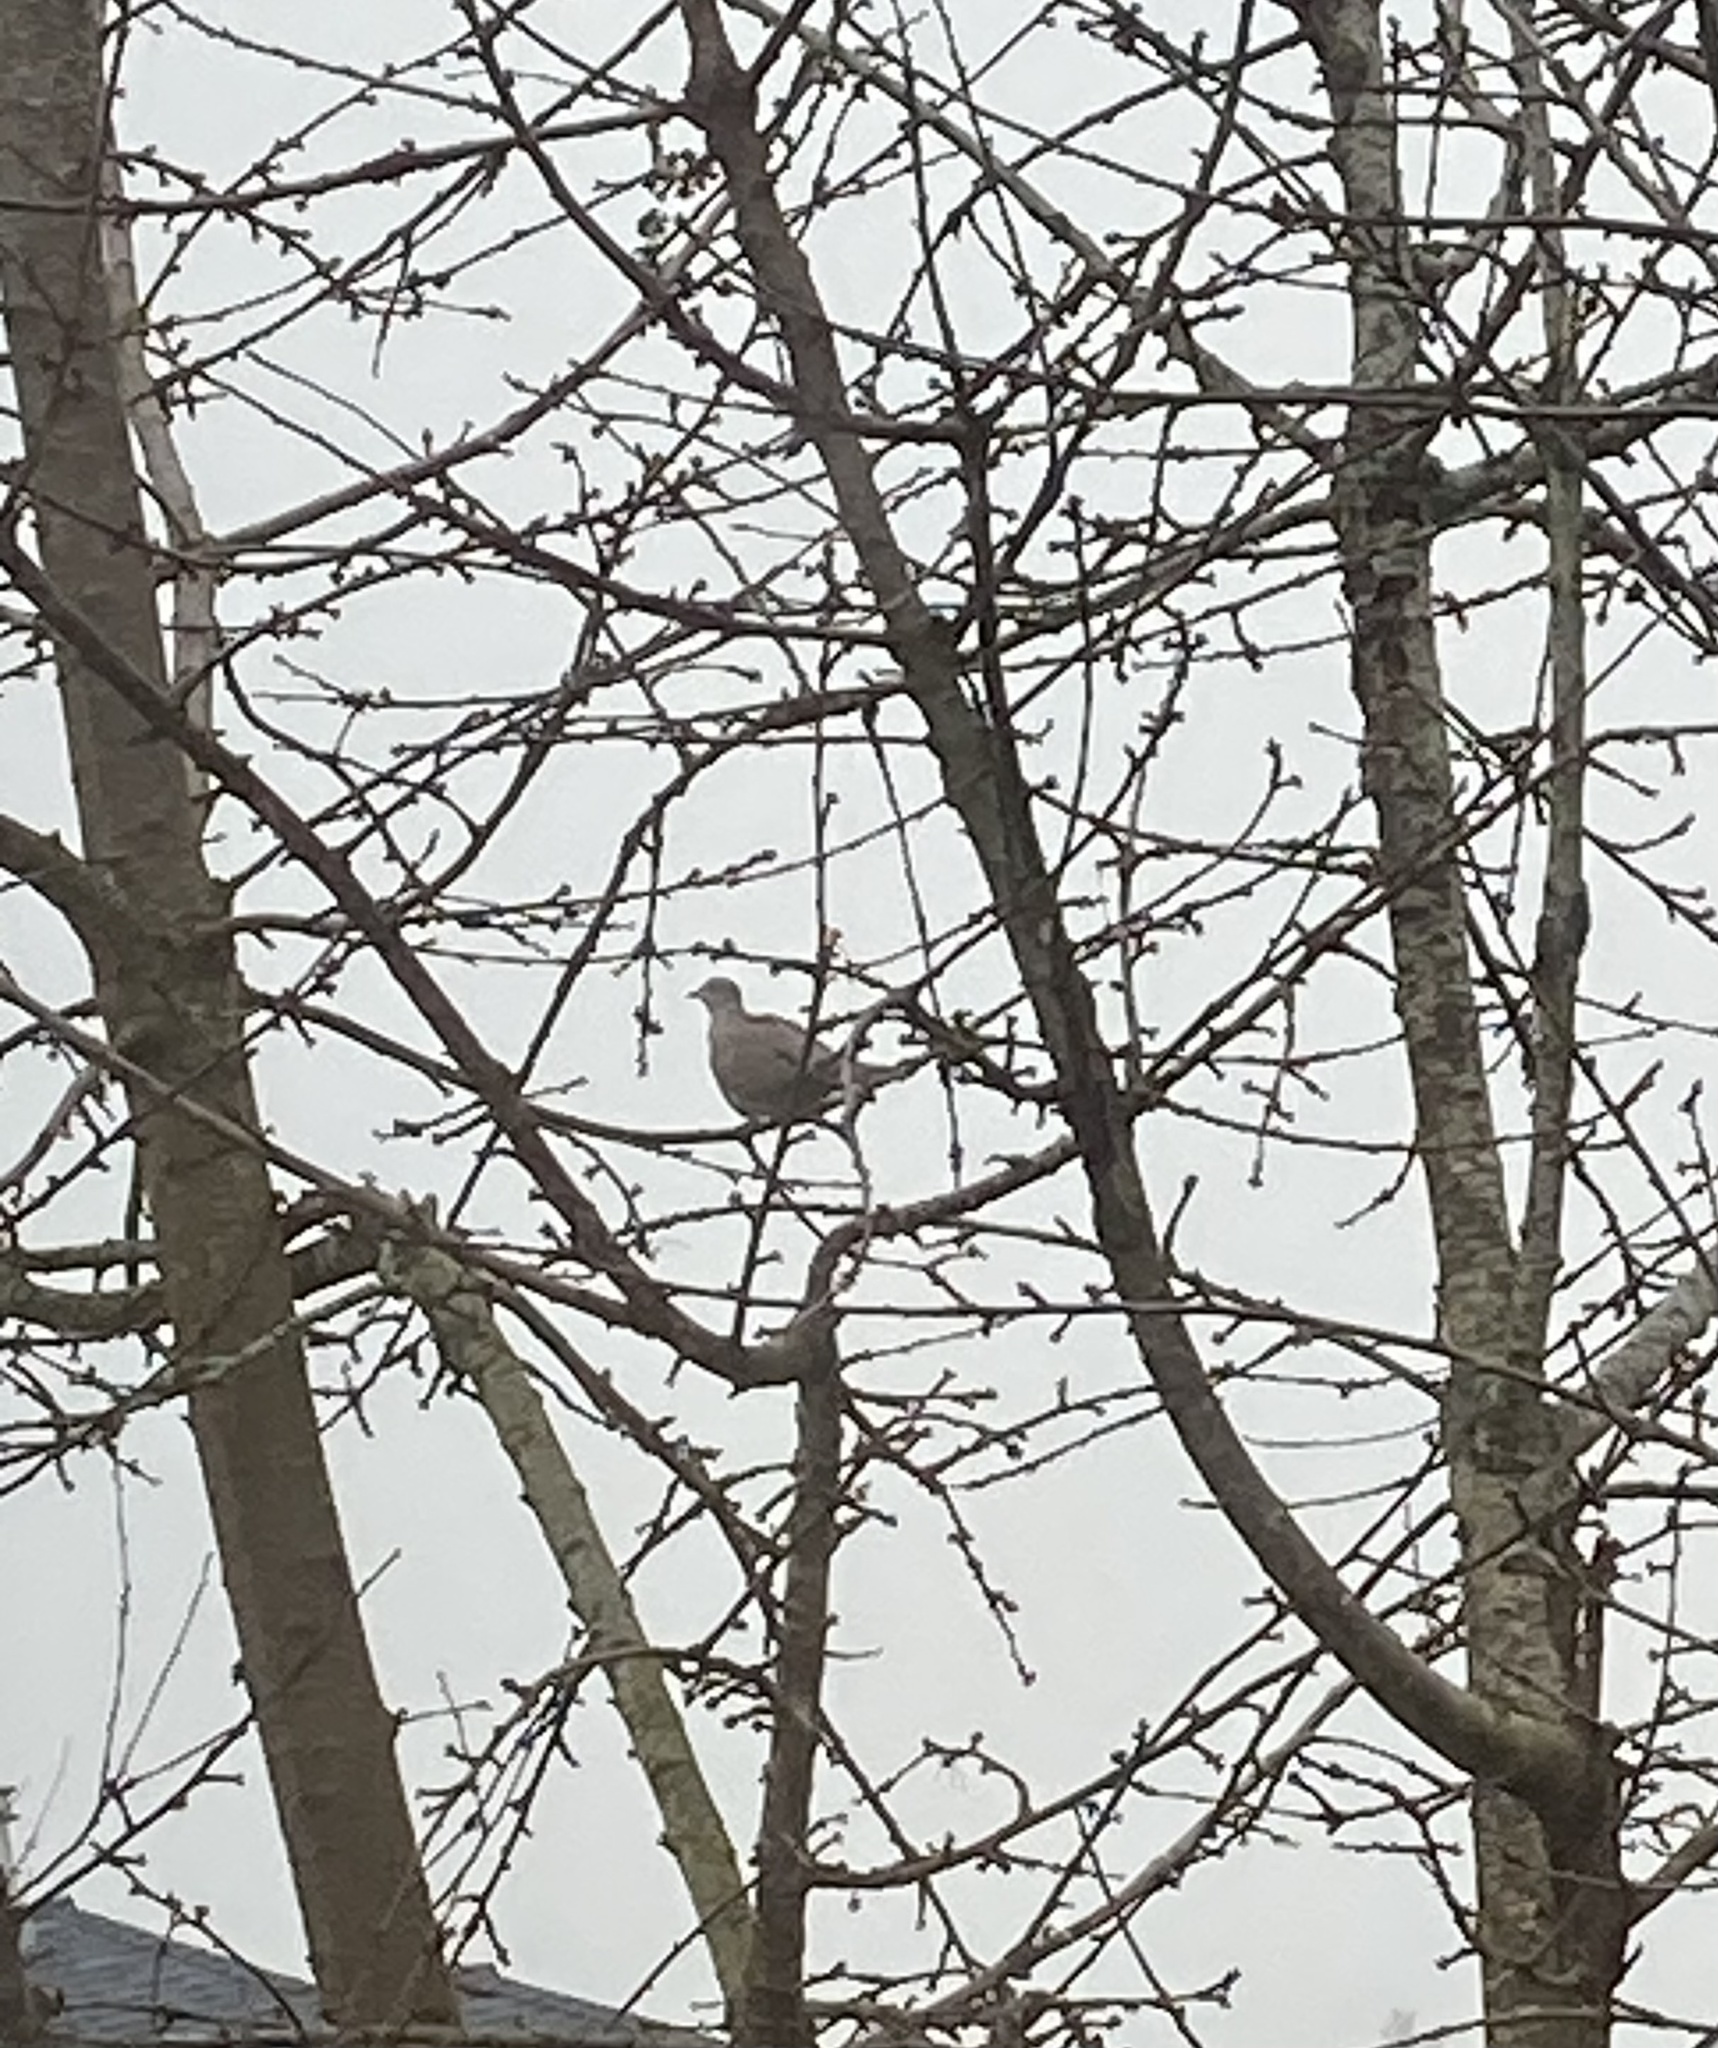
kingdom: Animalia
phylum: Chordata
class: Aves
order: Columbiformes
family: Columbidae
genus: Streptopelia
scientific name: Streptopelia decaocto
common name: Eurasian collared dove
